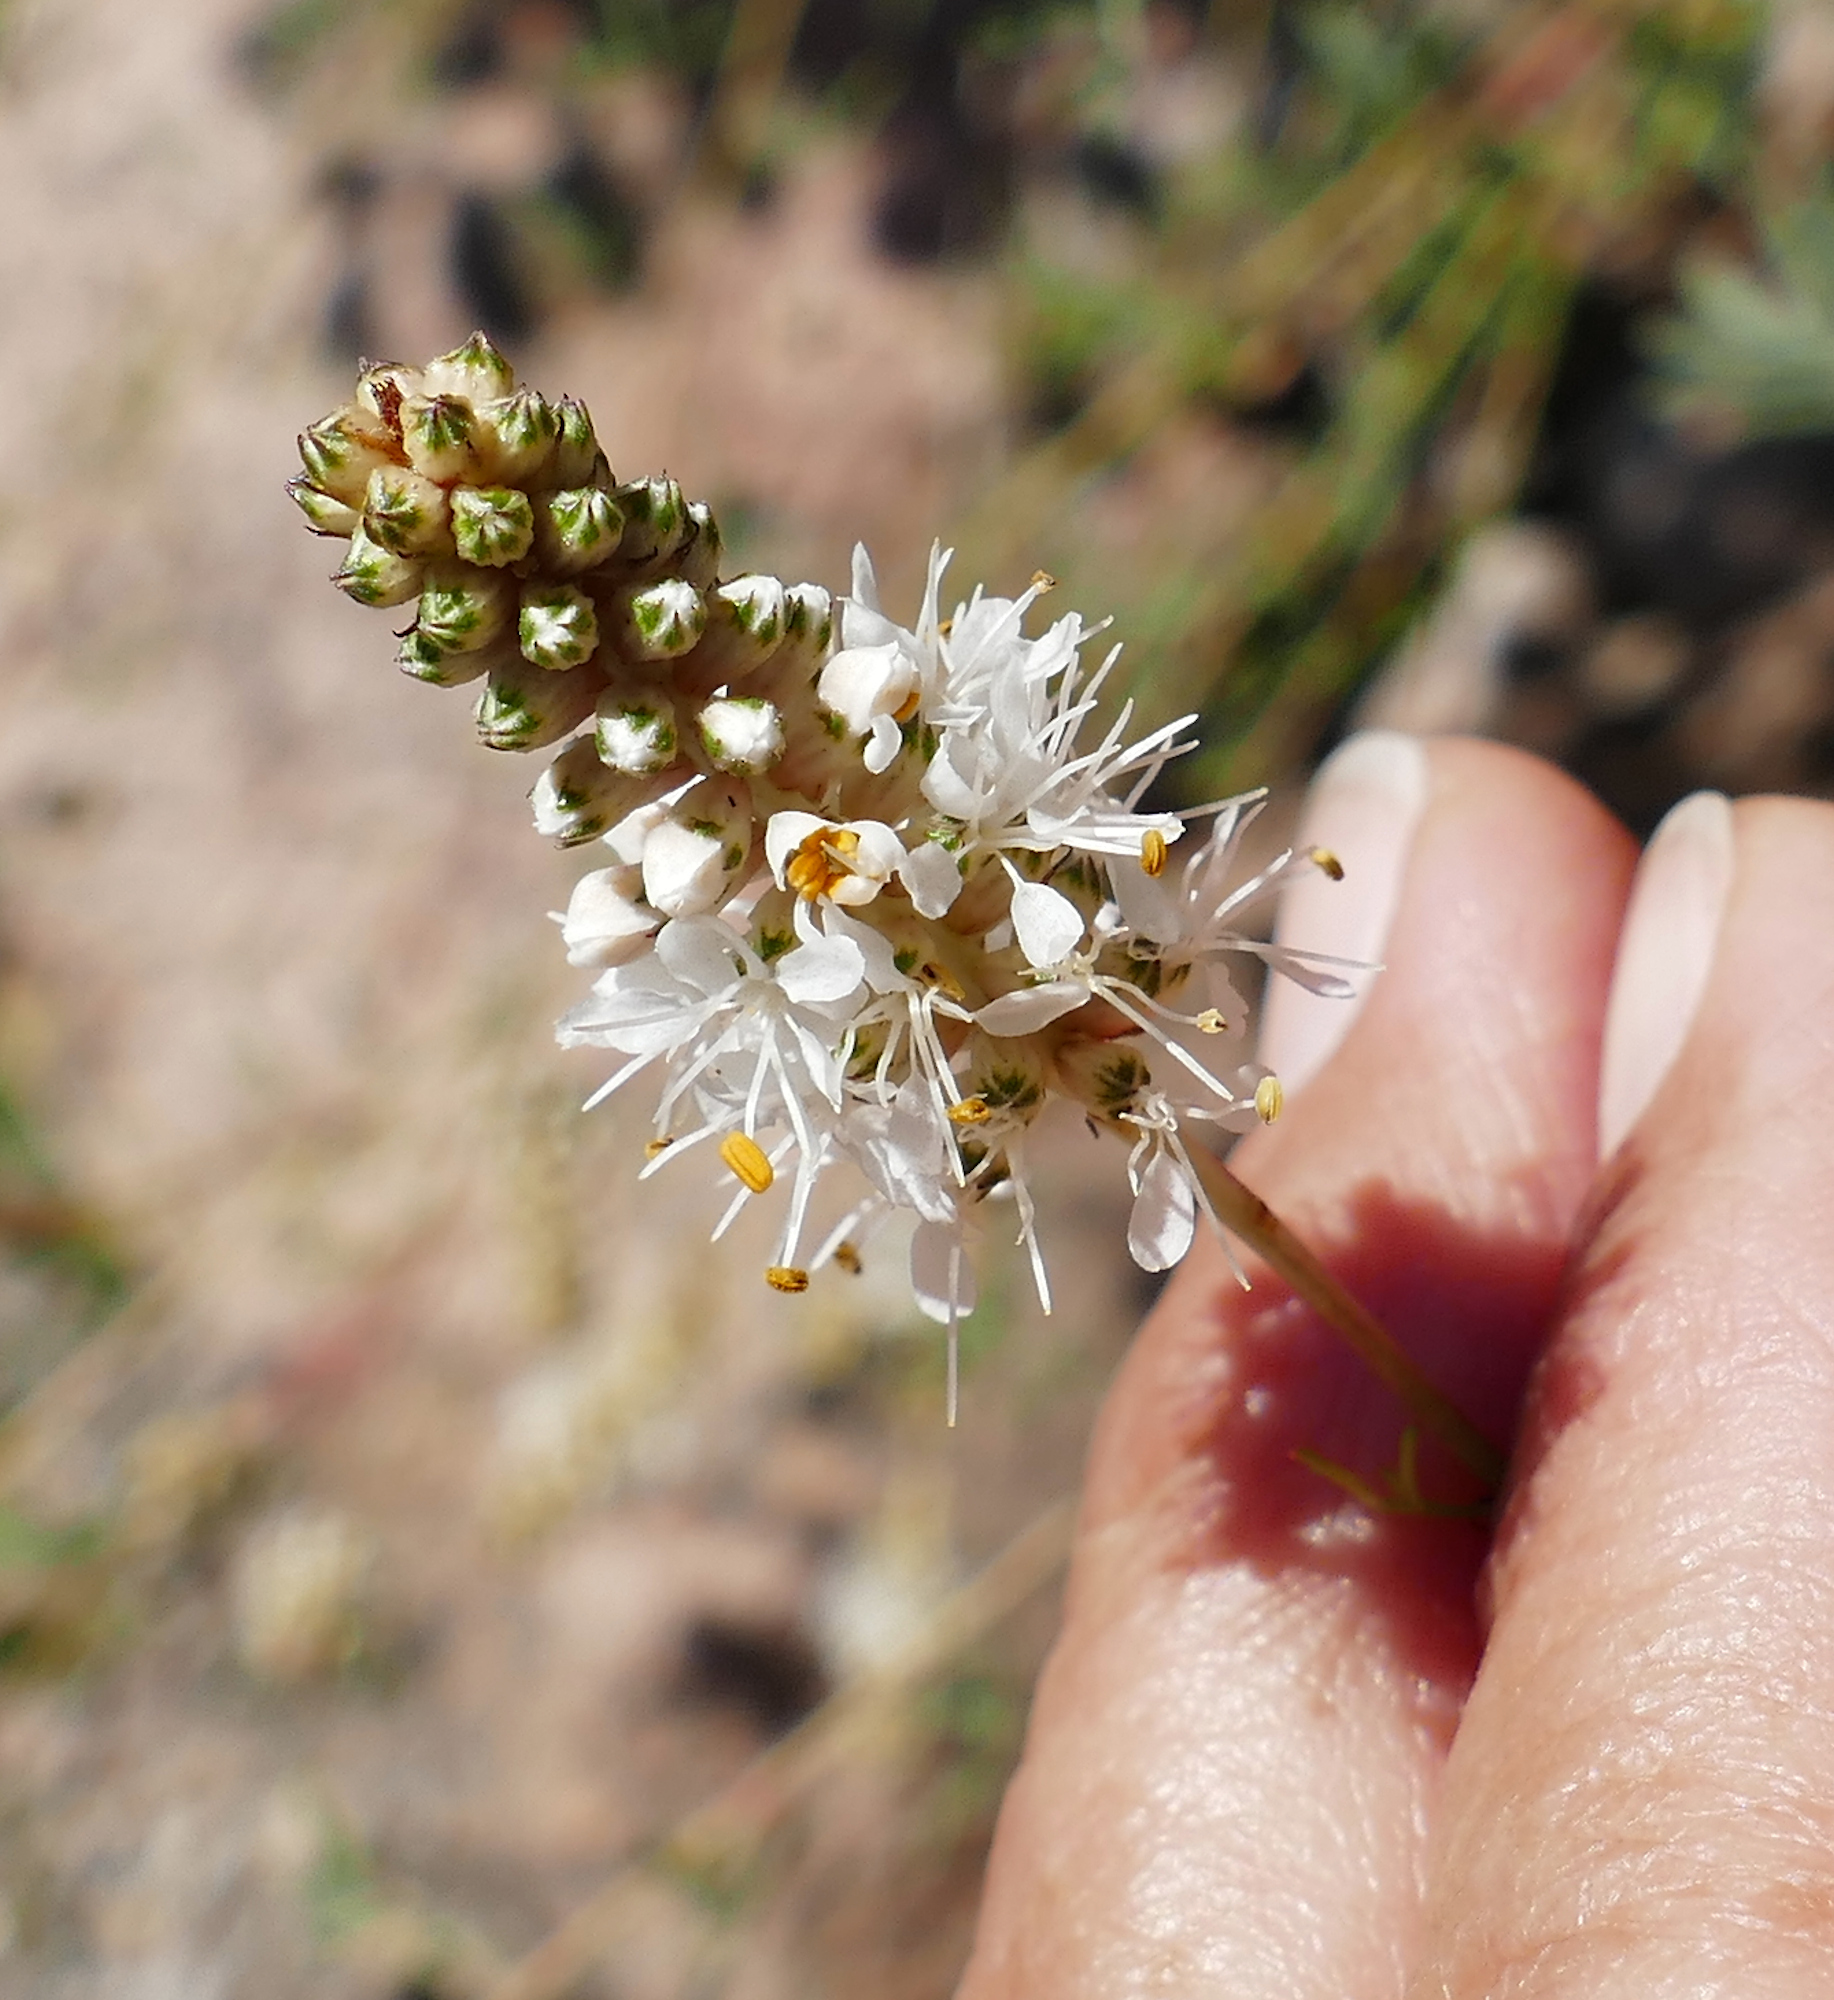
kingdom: Plantae
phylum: Tracheophyta
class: Magnoliopsida
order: Fabales
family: Fabaceae
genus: Dalea
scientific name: Dalea candida
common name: White prairie-clover
